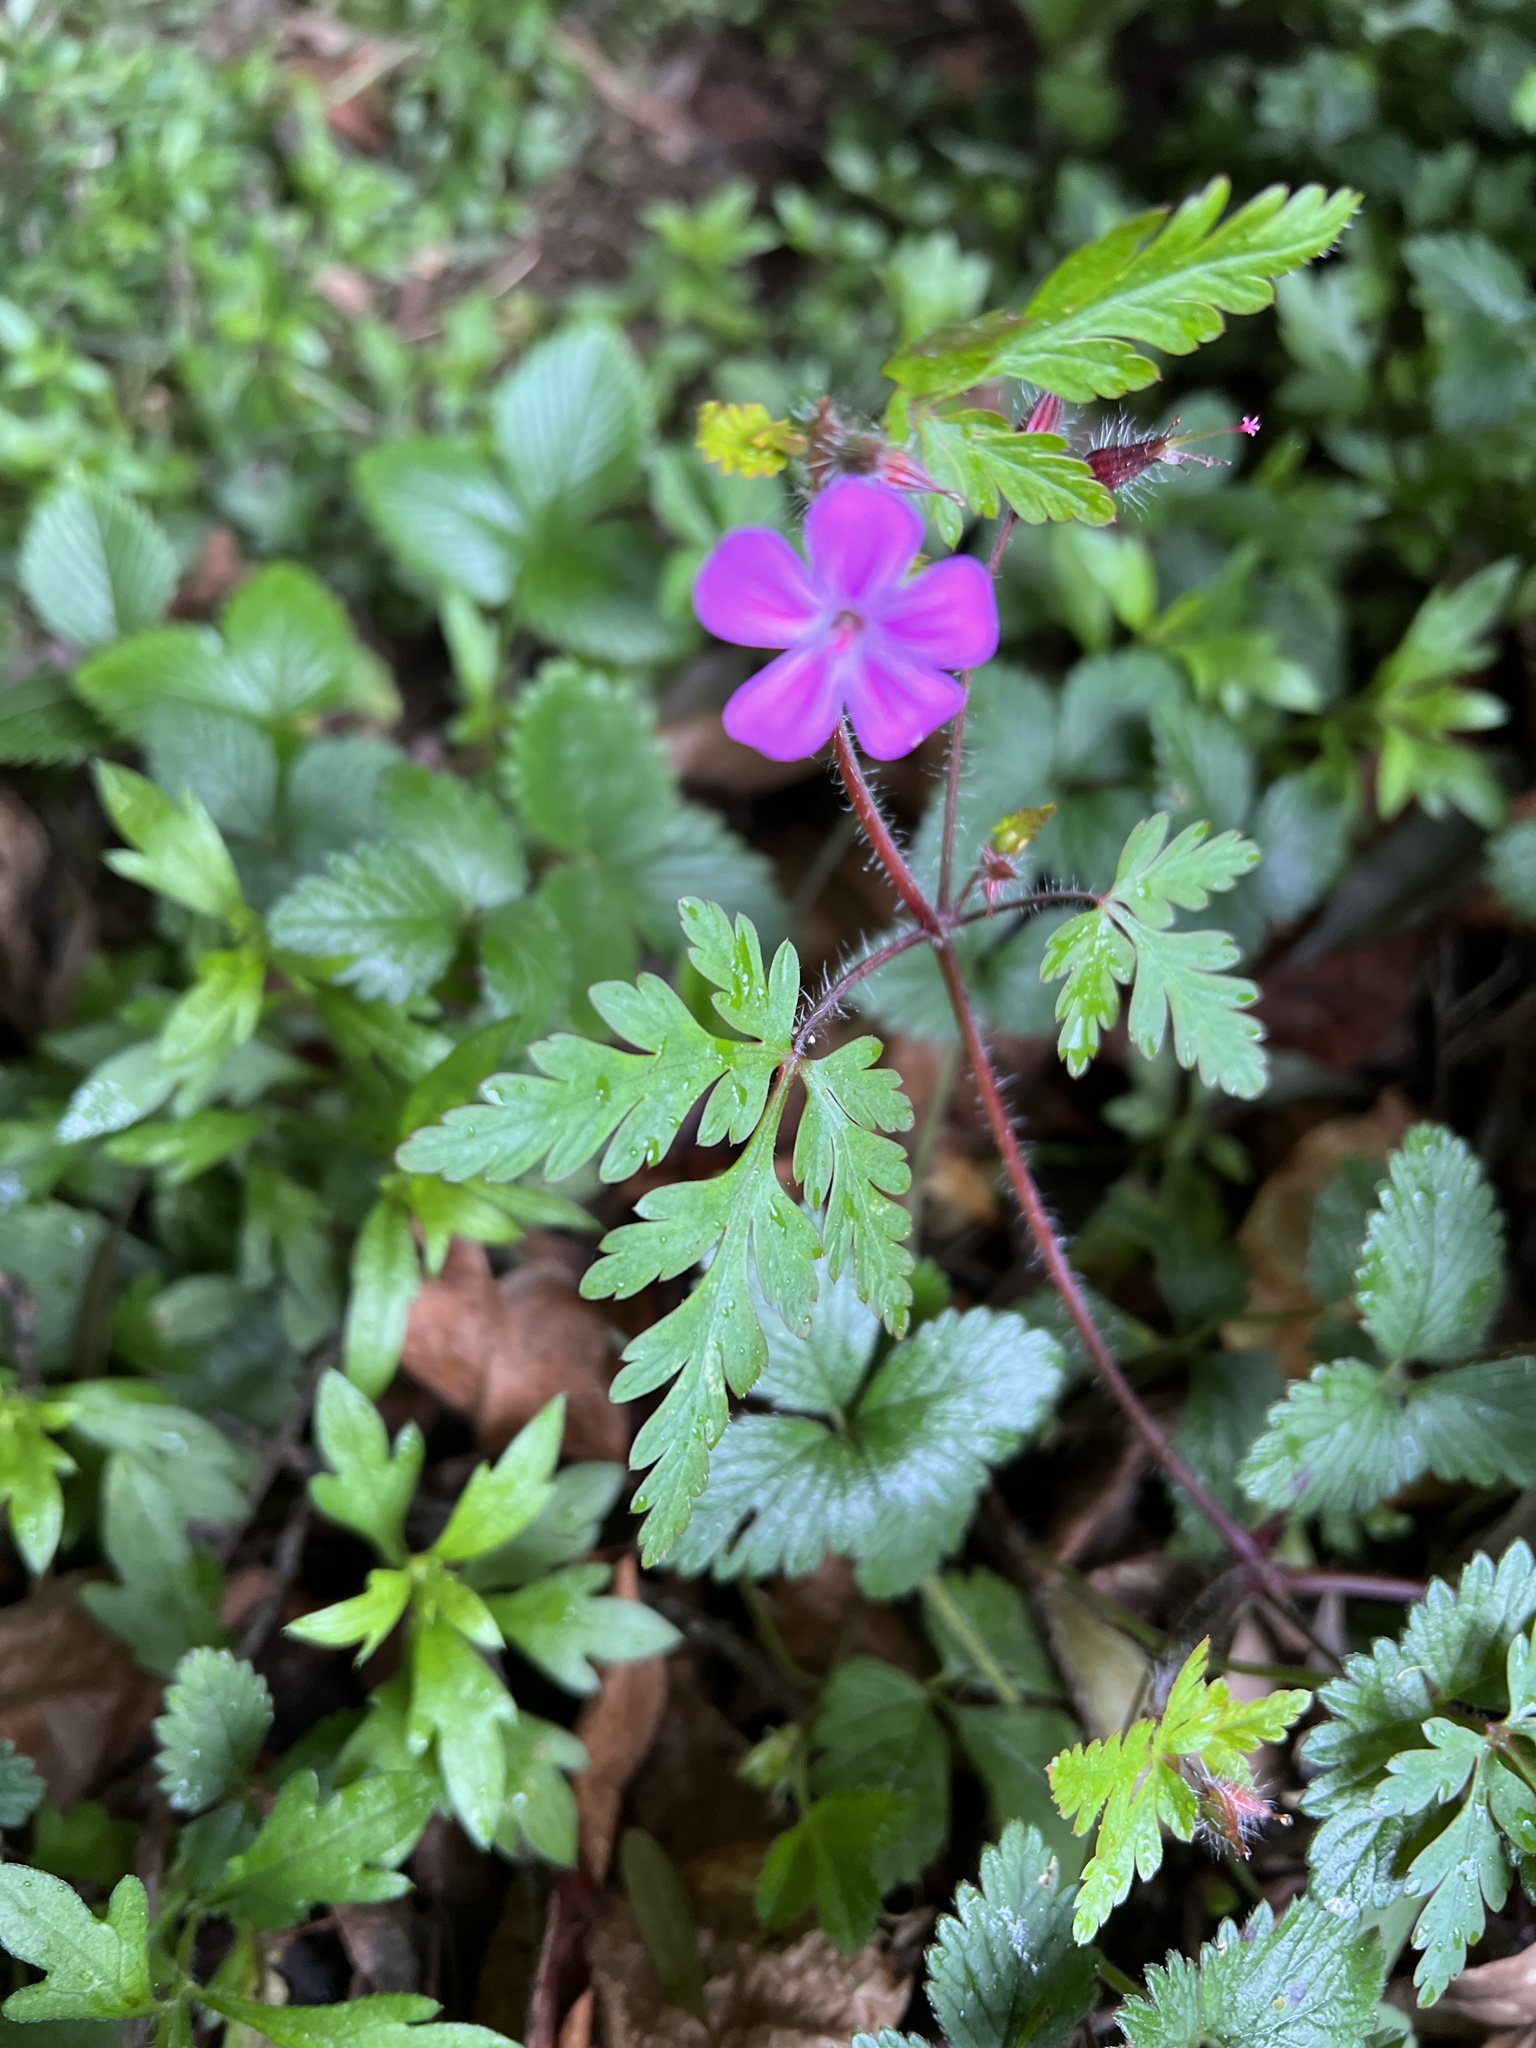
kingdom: Plantae
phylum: Tracheophyta
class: Magnoliopsida
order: Geraniales
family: Geraniaceae
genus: Geranium
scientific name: Geranium robertianum
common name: Herb-robert
